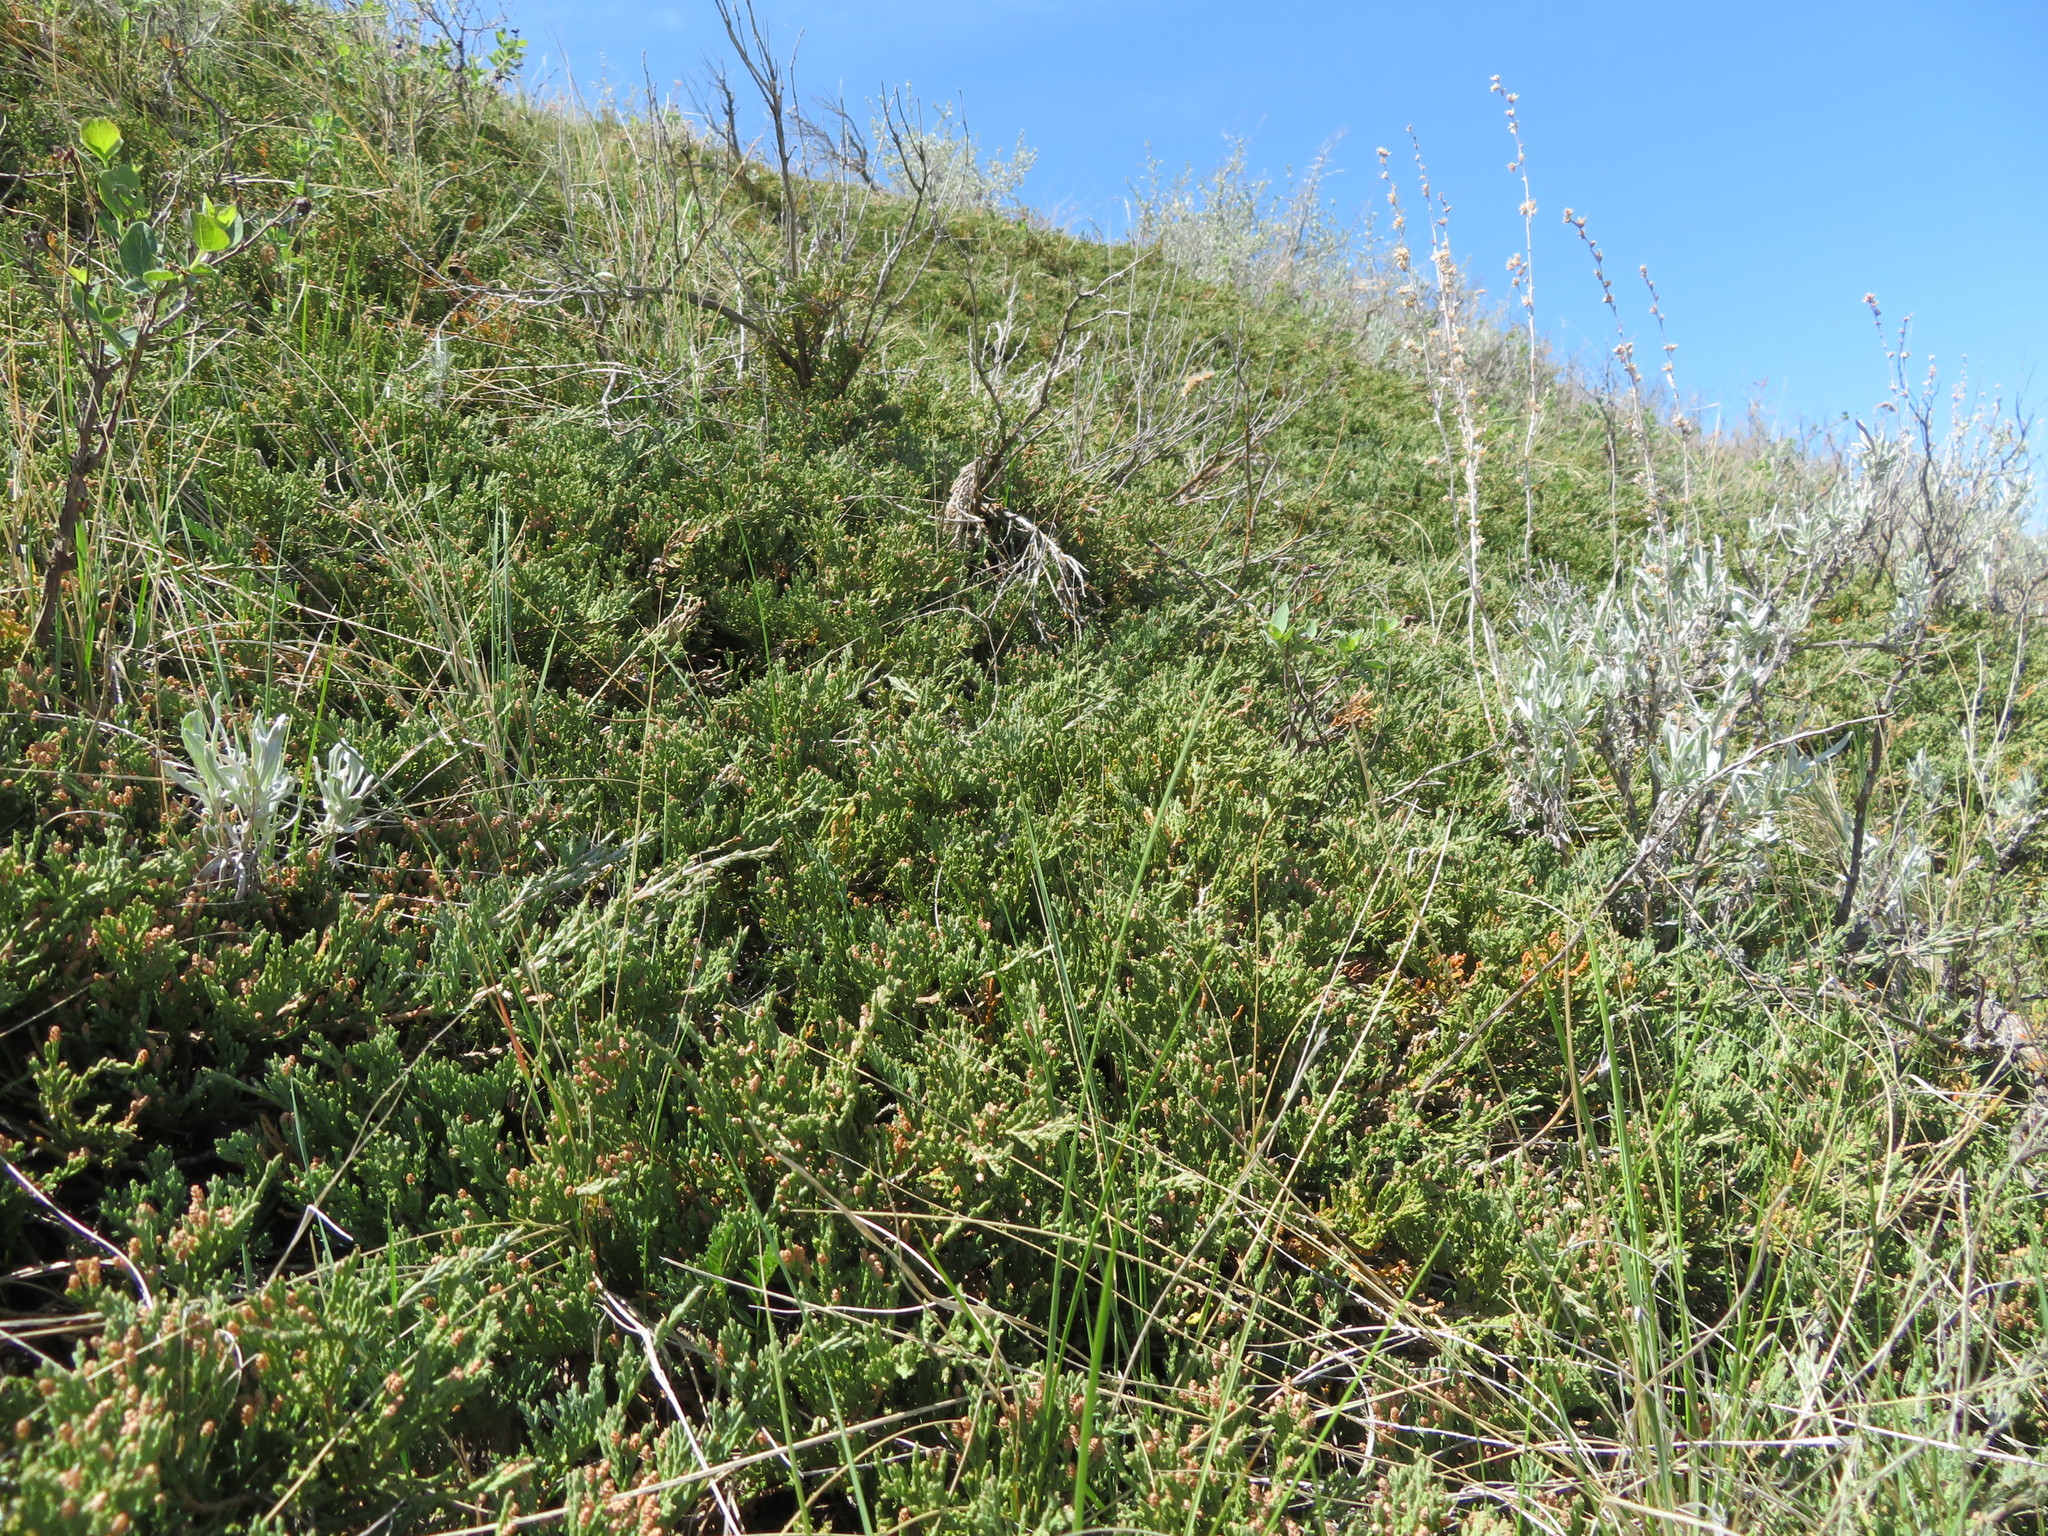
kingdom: Plantae
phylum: Tracheophyta
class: Pinopsida
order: Pinales
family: Cupressaceae
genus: Juniperus
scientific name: Juniperus horizontalis
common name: Creeping juniper
